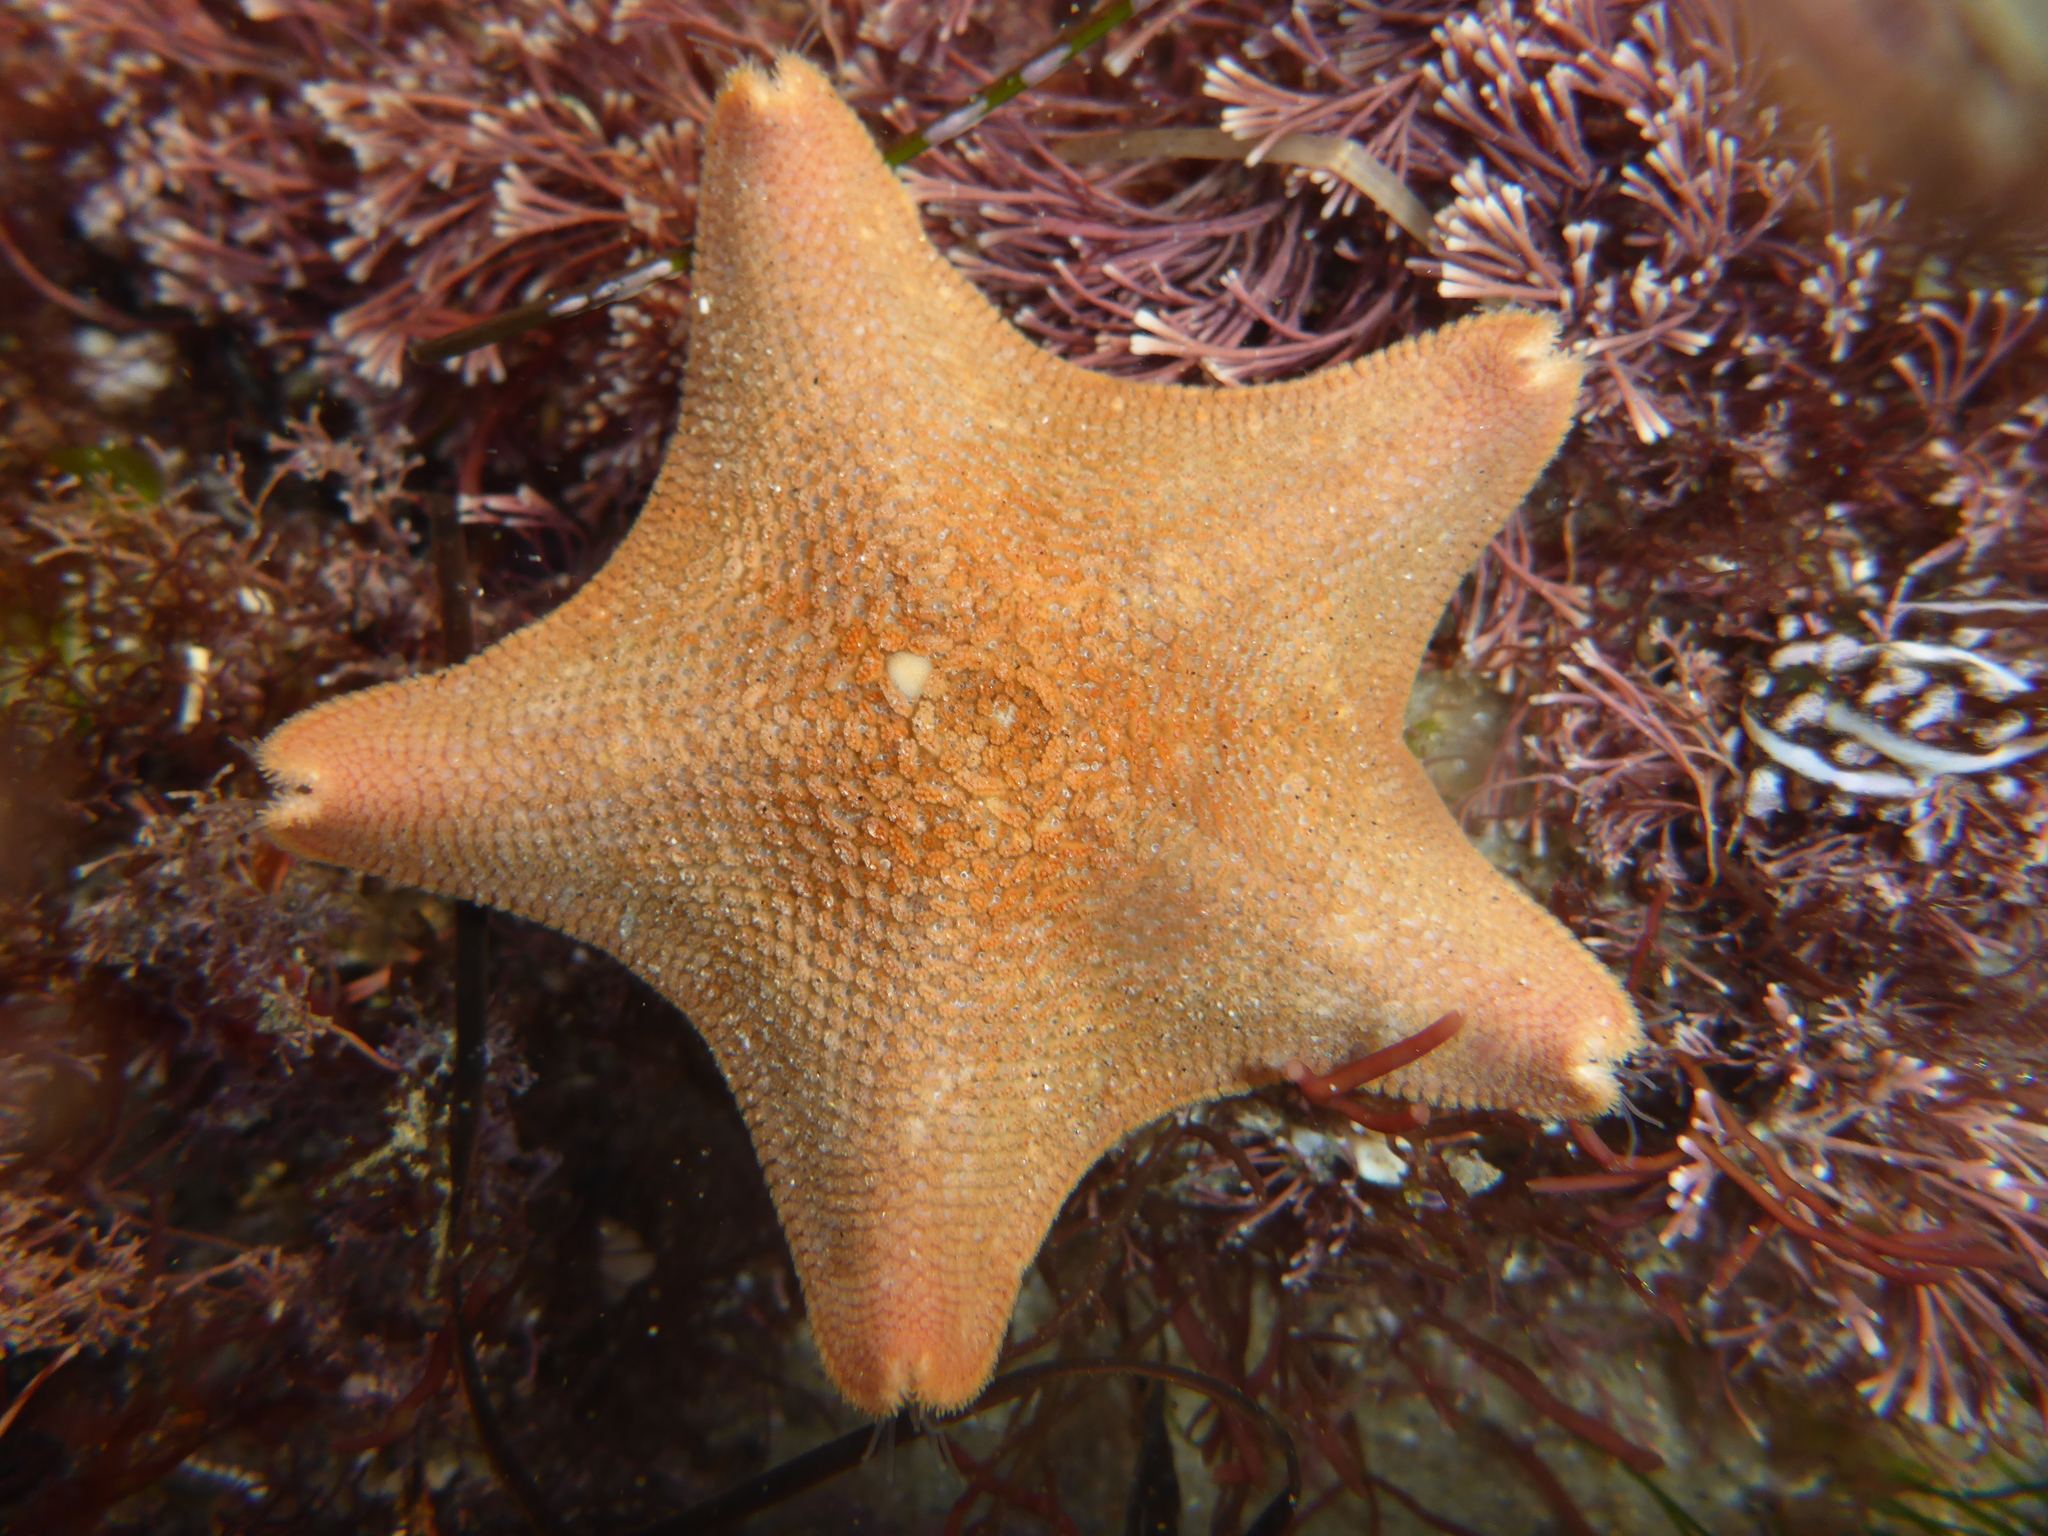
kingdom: Animalia
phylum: Echinodermata
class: Asteroidea
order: Valvatida
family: Asterinidae
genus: Patiria
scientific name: Patiria miniata
